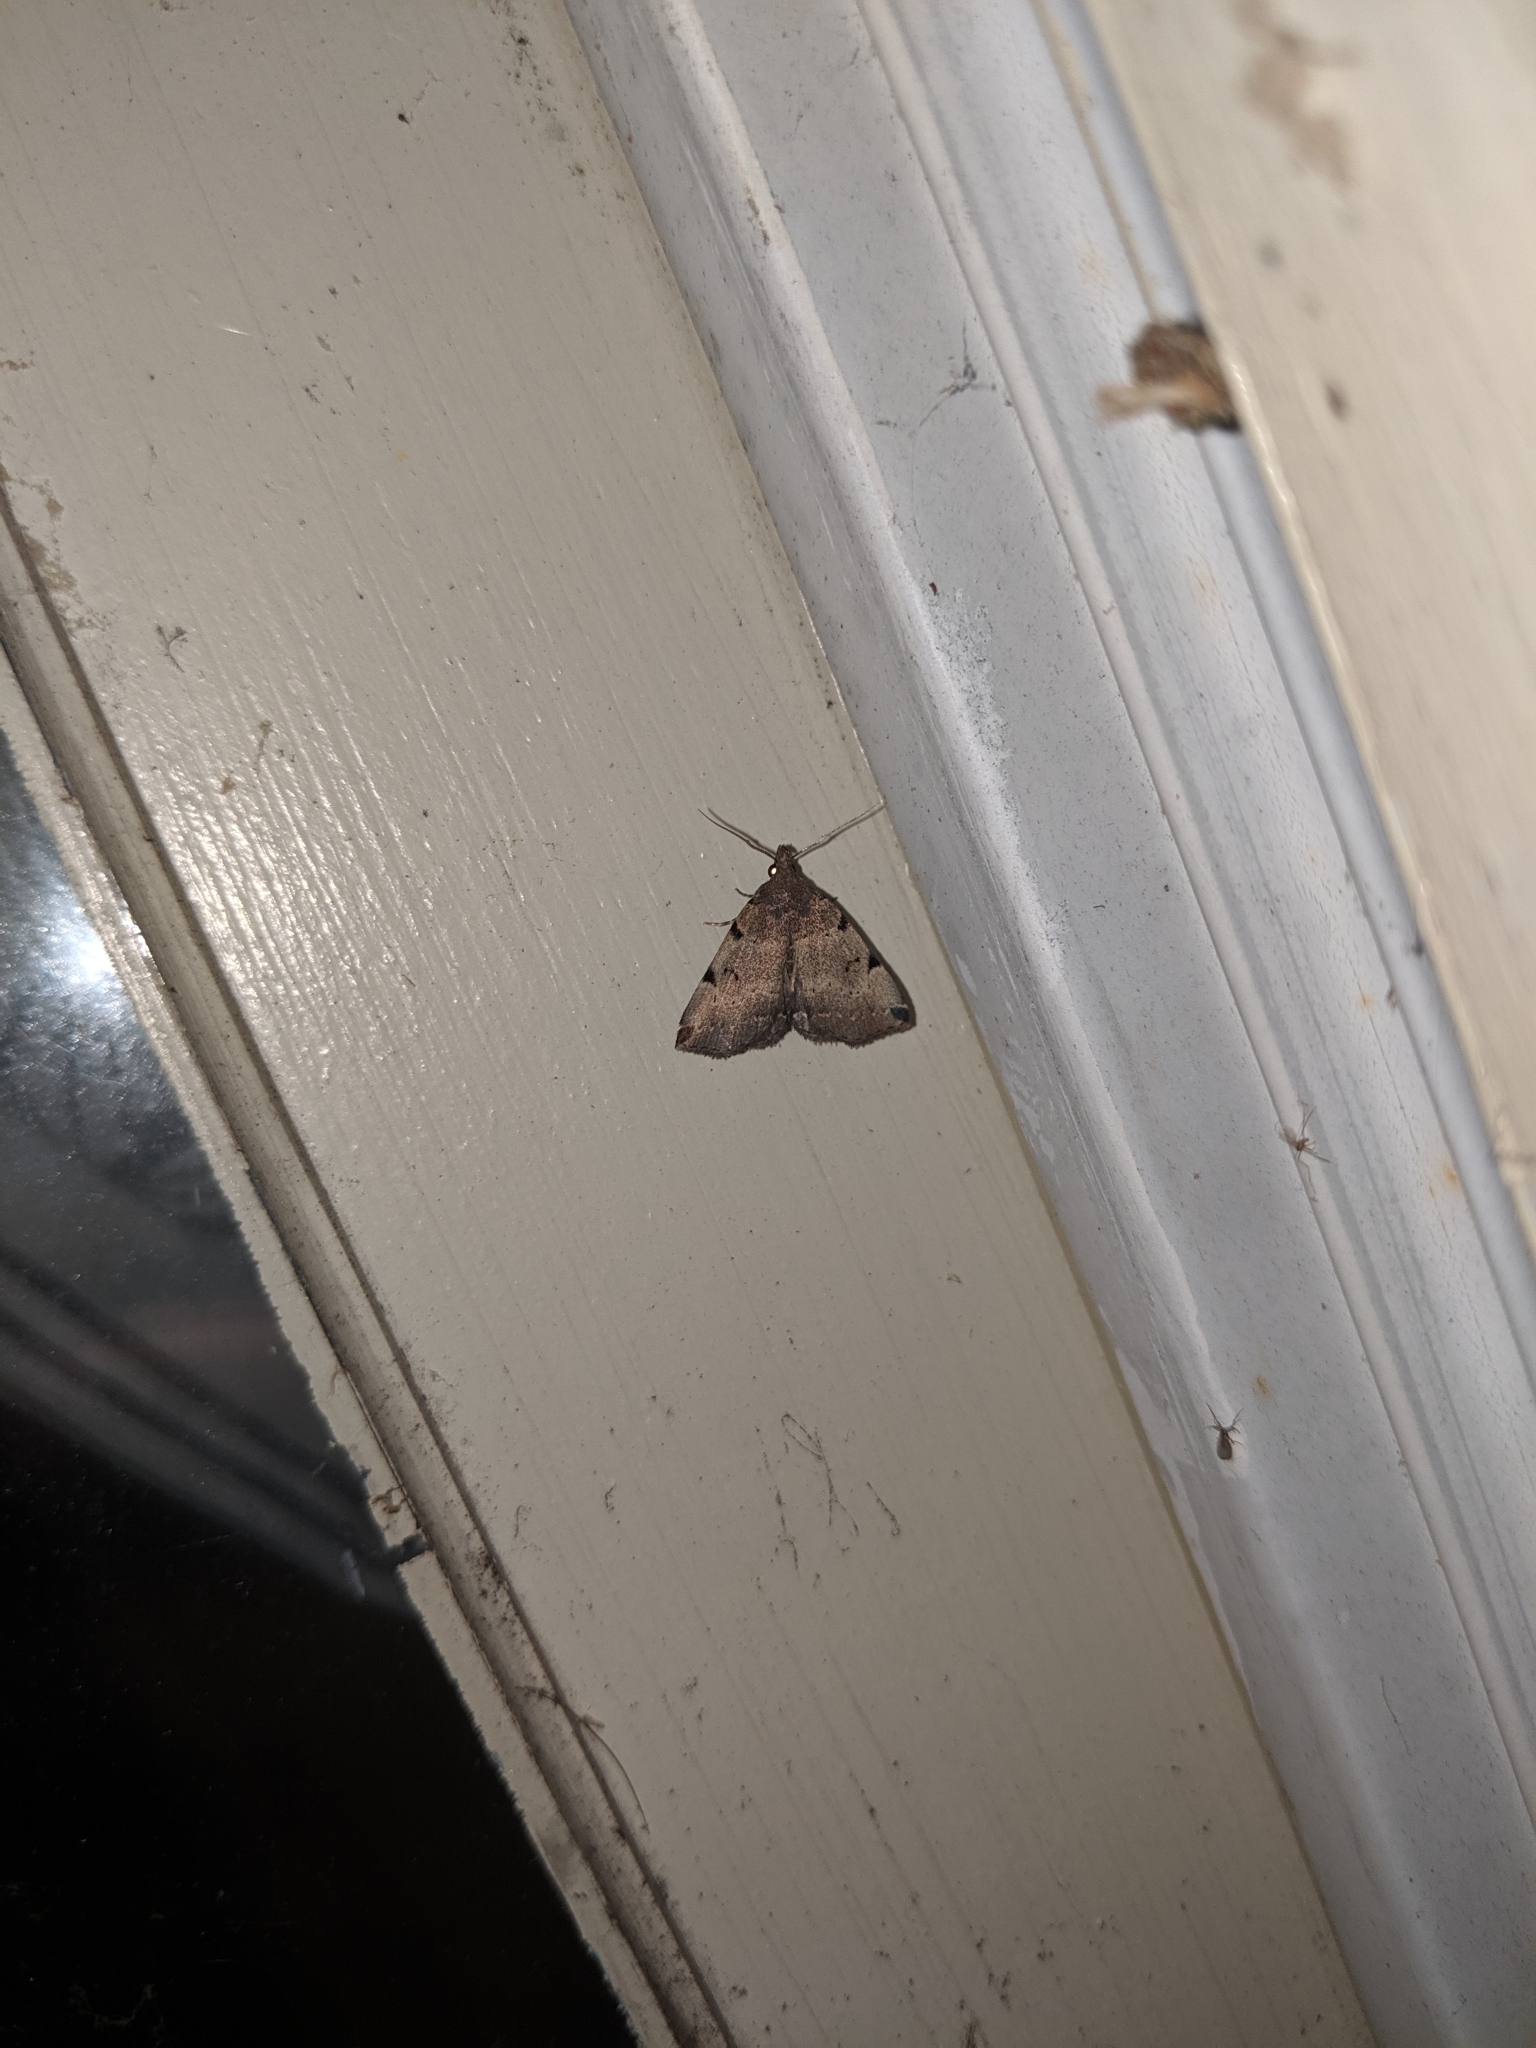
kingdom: Animalia
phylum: Arthropoda
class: Insecta
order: Lepidoptera
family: Erebidae
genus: Zanclognatha
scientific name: Zanclognatha lituralis
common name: Lettered fan-foot
